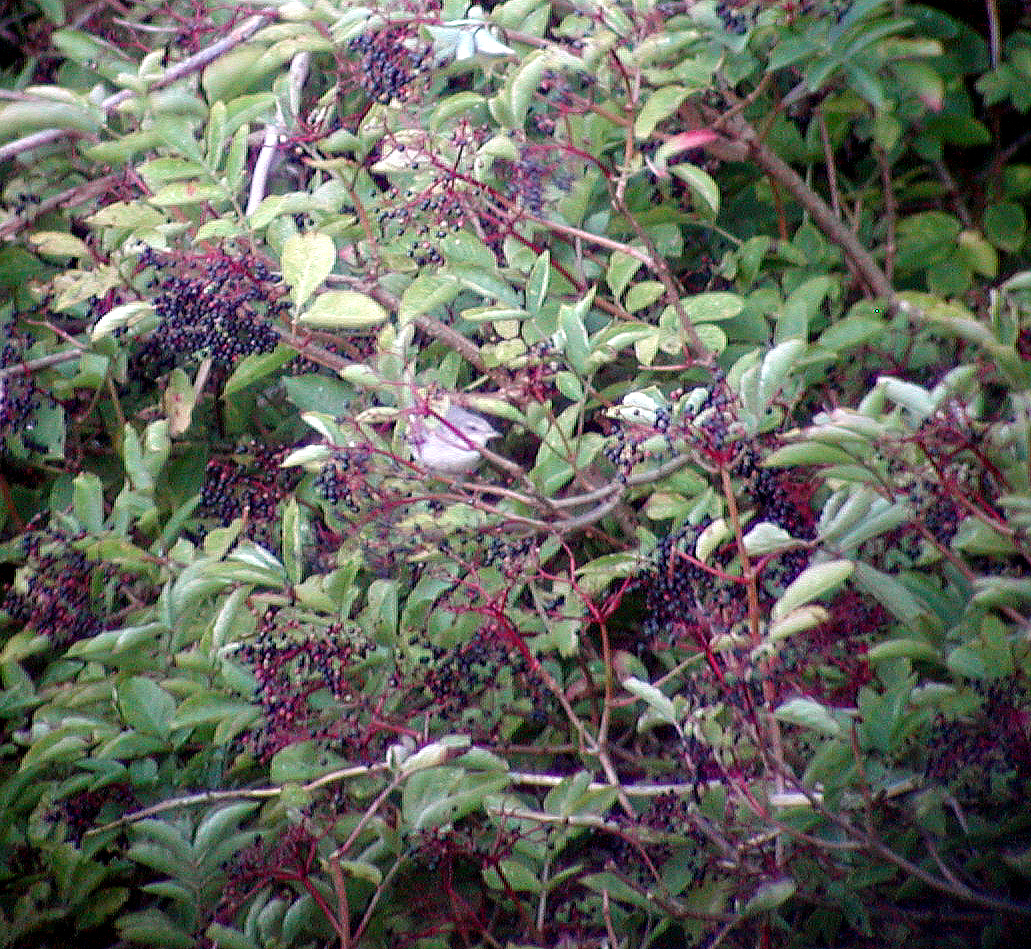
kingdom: Animalia
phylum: Chordata
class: Aves
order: Passeriformes
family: Sylviidae
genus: Sylvia
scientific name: Sylvia nisoria
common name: Barred warbler
